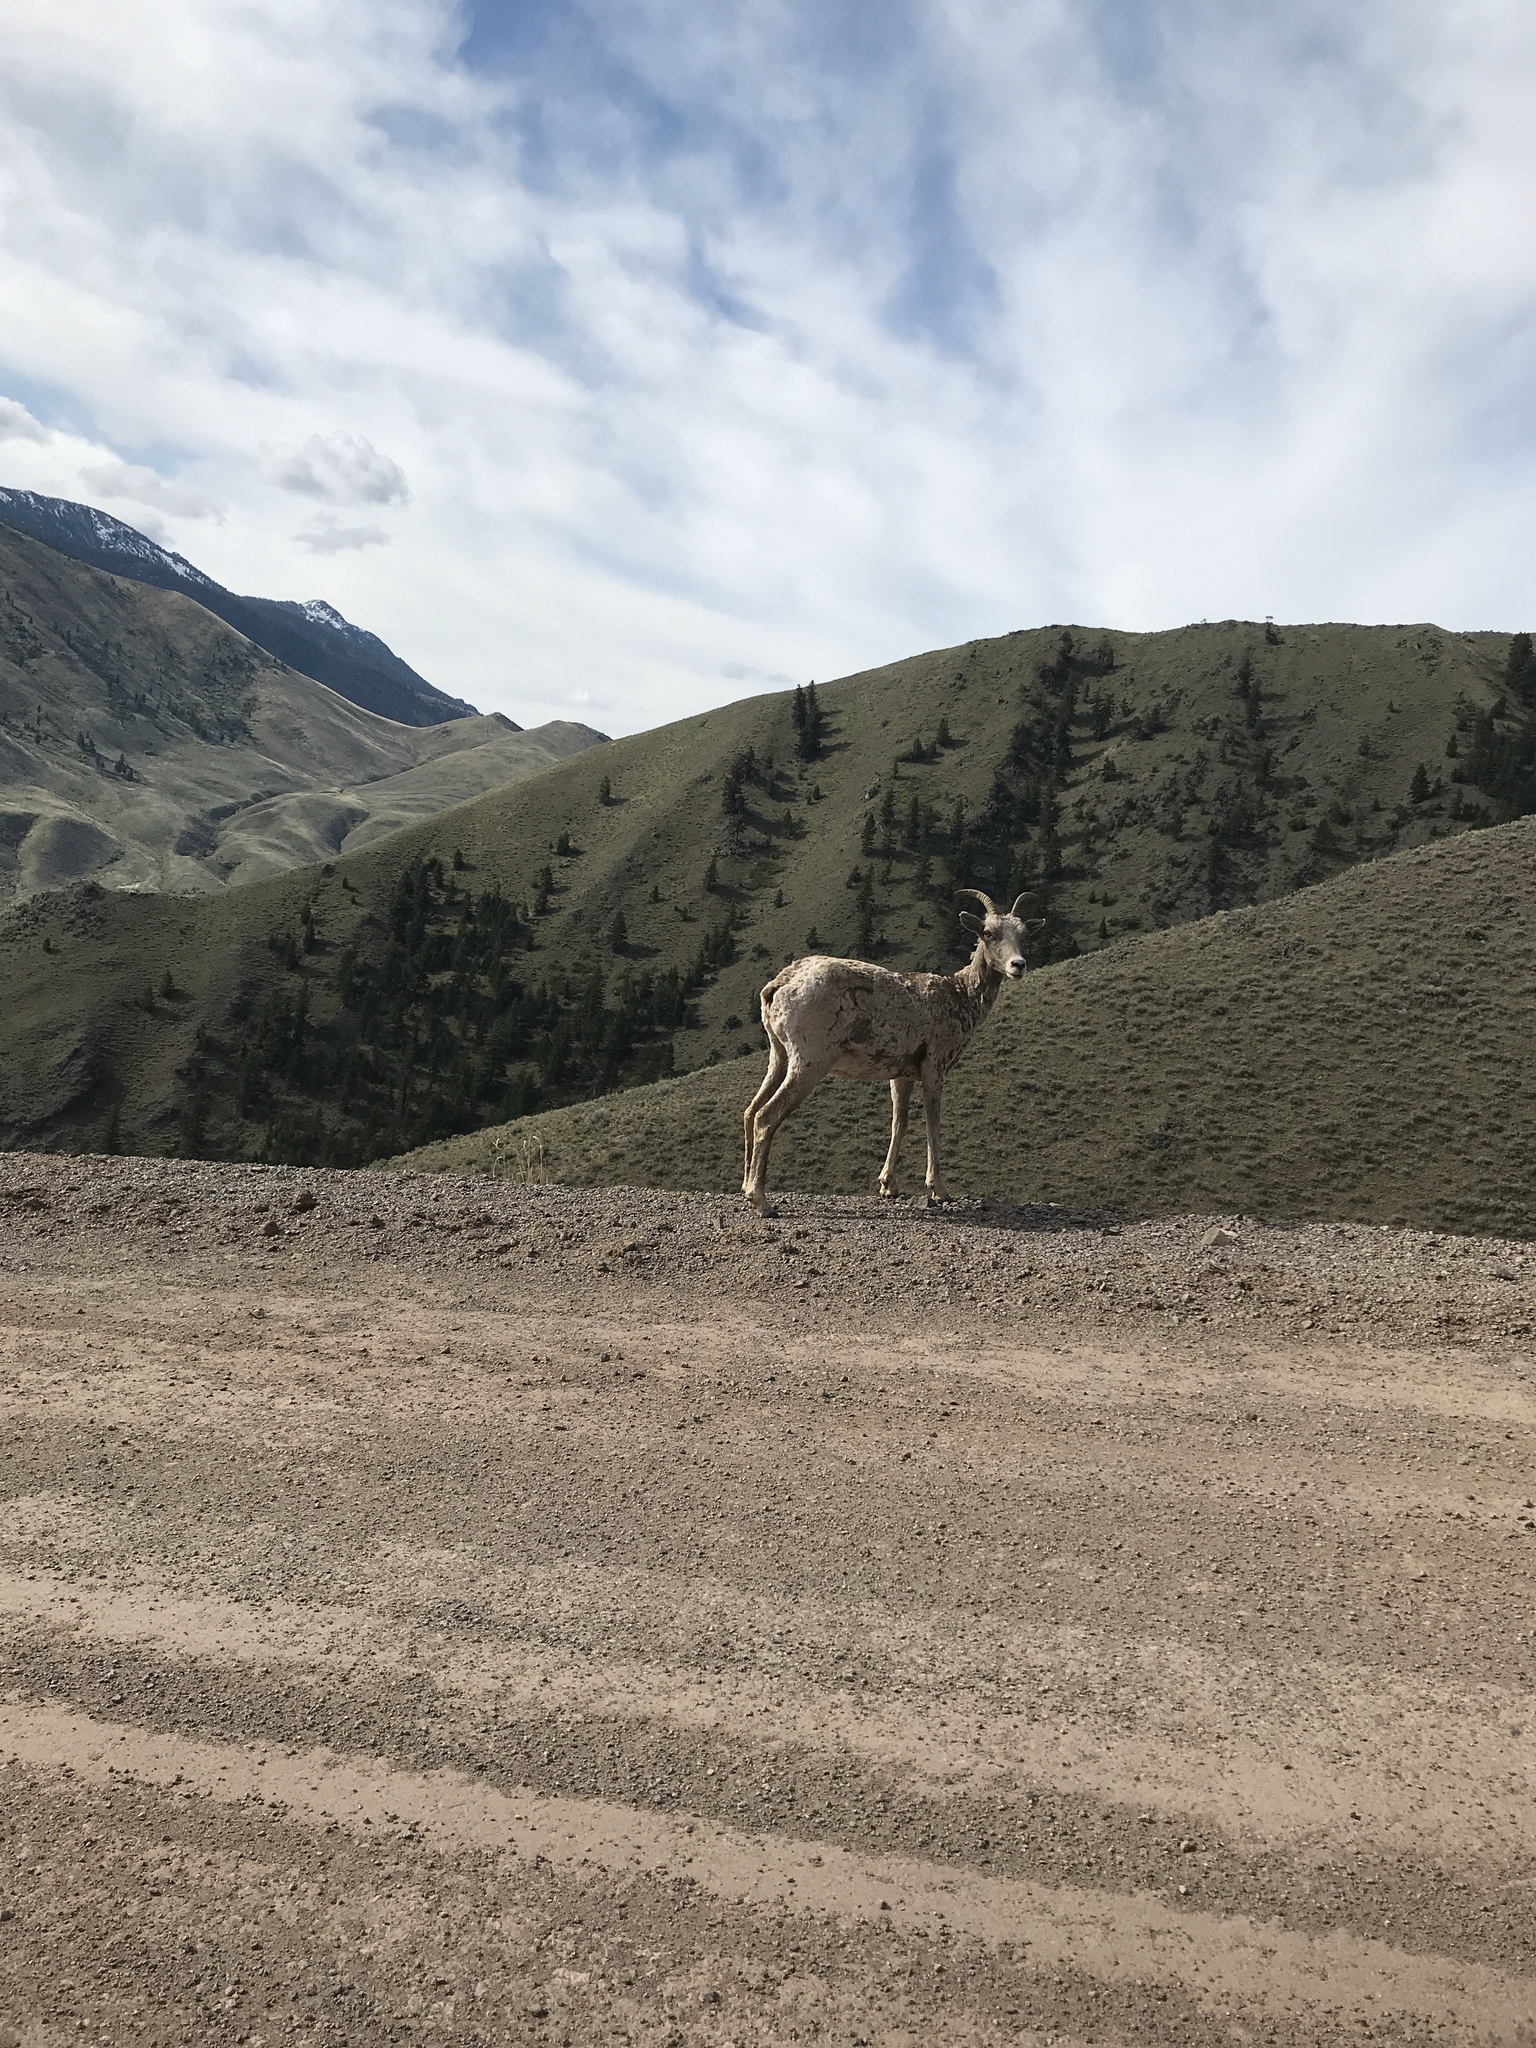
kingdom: Animalia
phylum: Chordata
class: Mammalia
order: Artiodactyla
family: Bovidae
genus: Ovis
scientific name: Ovis canadensis
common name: Bighorn sheep
